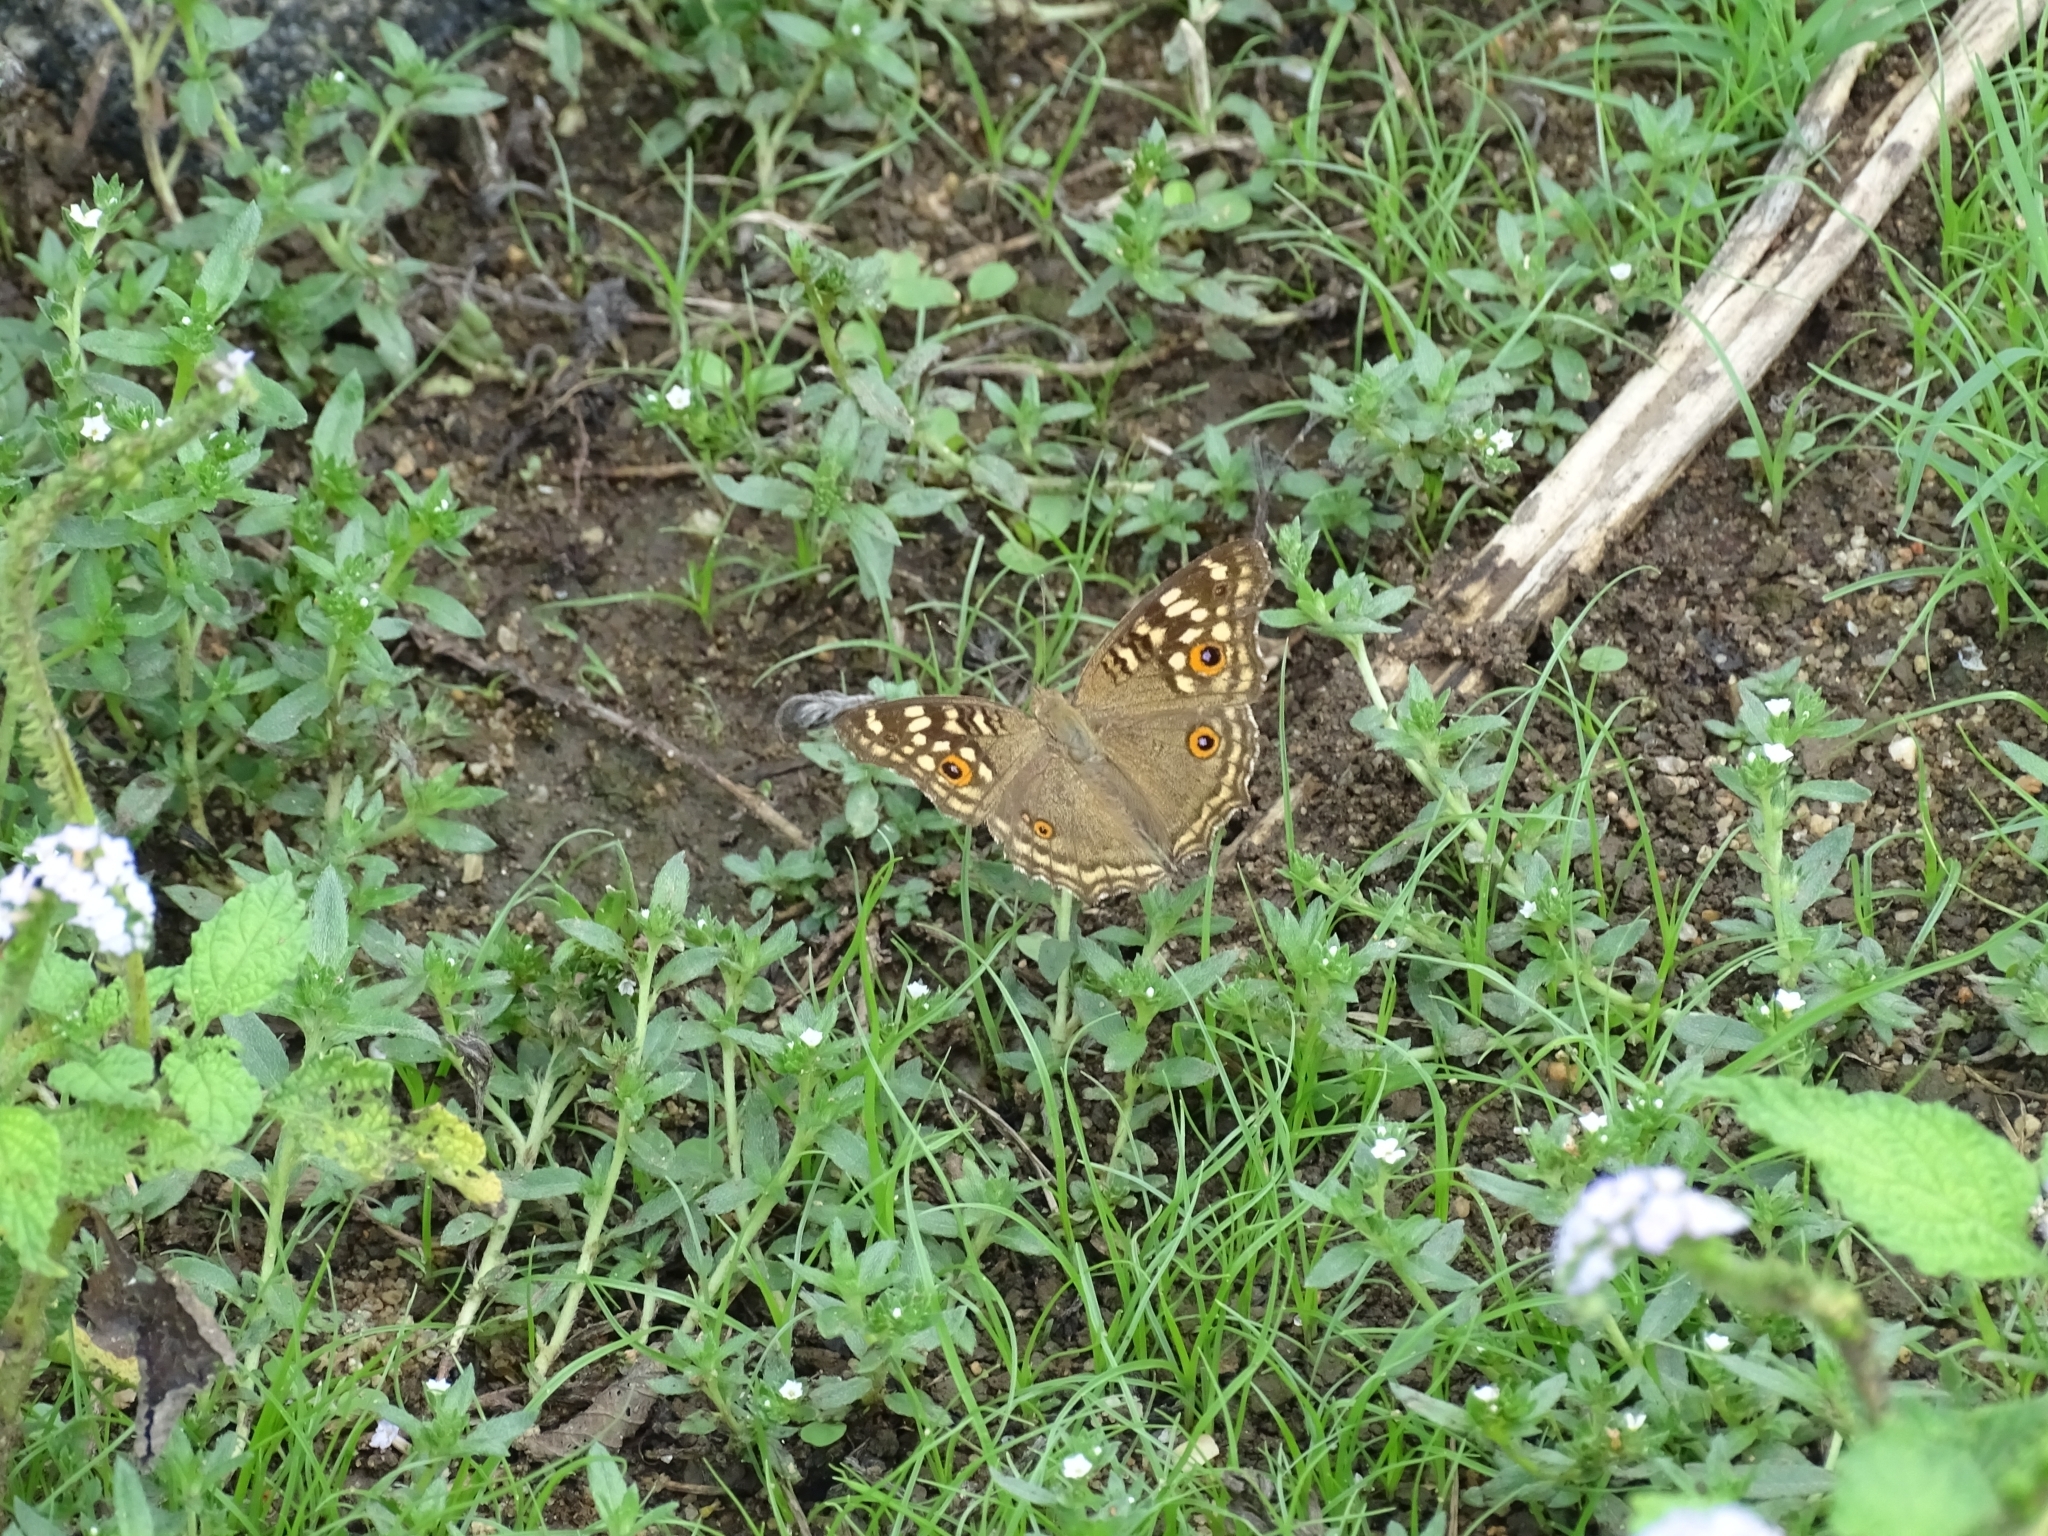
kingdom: Animalia
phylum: Arthropoda
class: Insecta
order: Lepidoptera
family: Nymphalidae
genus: Junonia
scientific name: Junonia lemonias
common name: Lemon pansy
